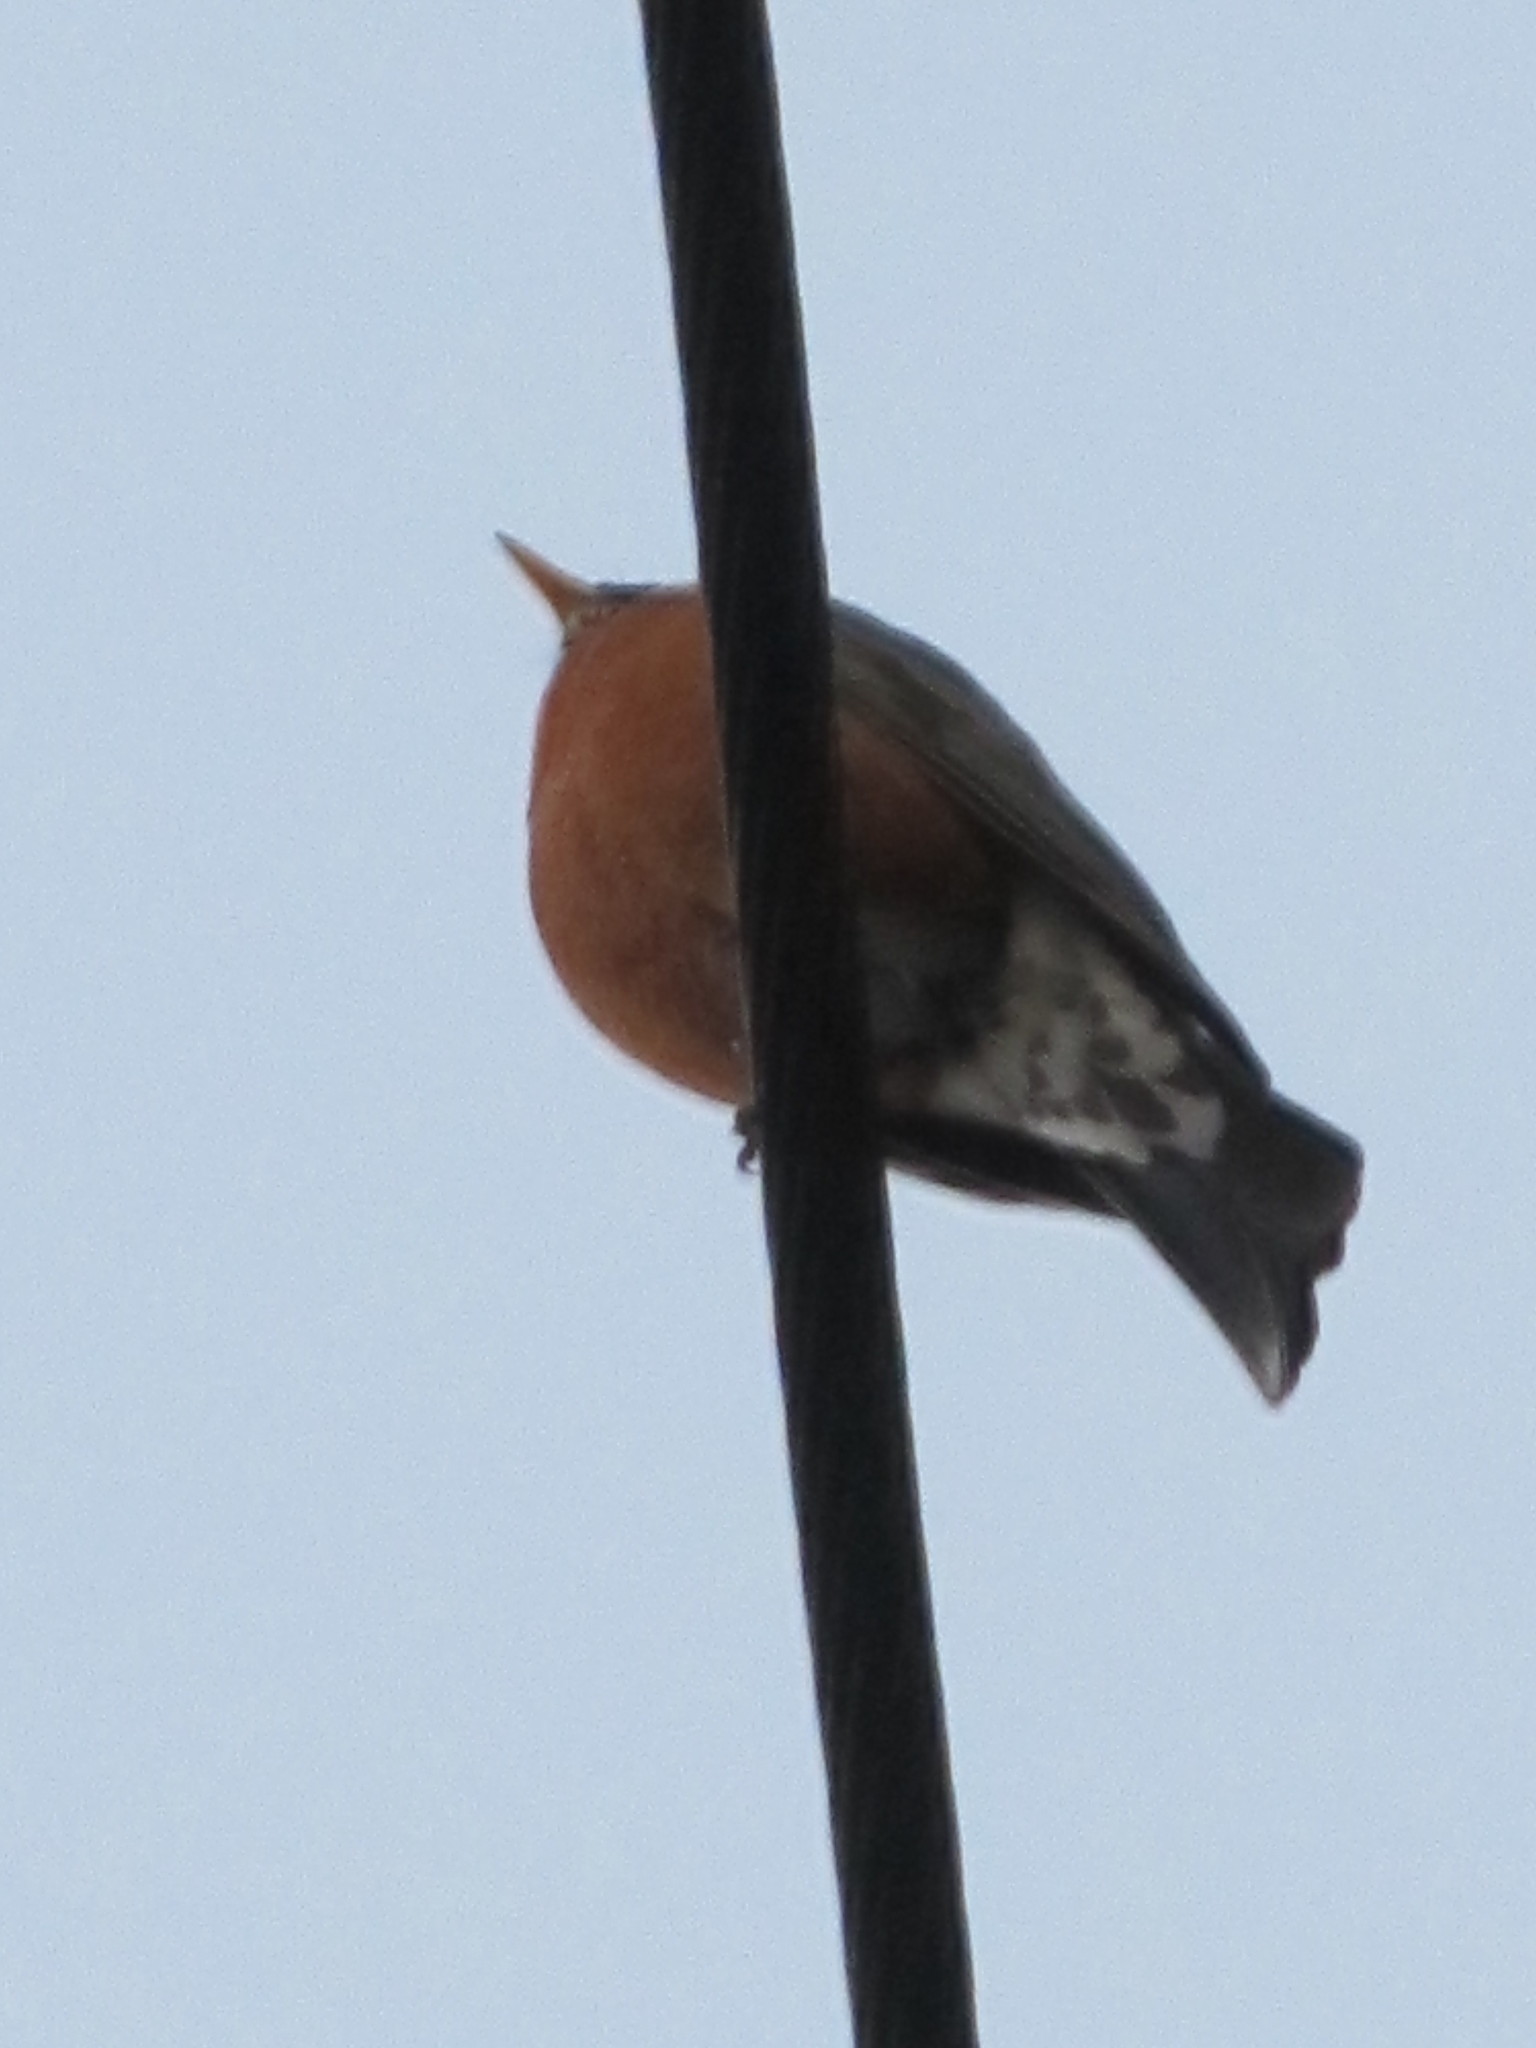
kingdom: Animalia
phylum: Chordata
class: Aves
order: Passeriformes
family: Turdidae
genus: Turdus
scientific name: Turdus migratorius
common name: American robin
